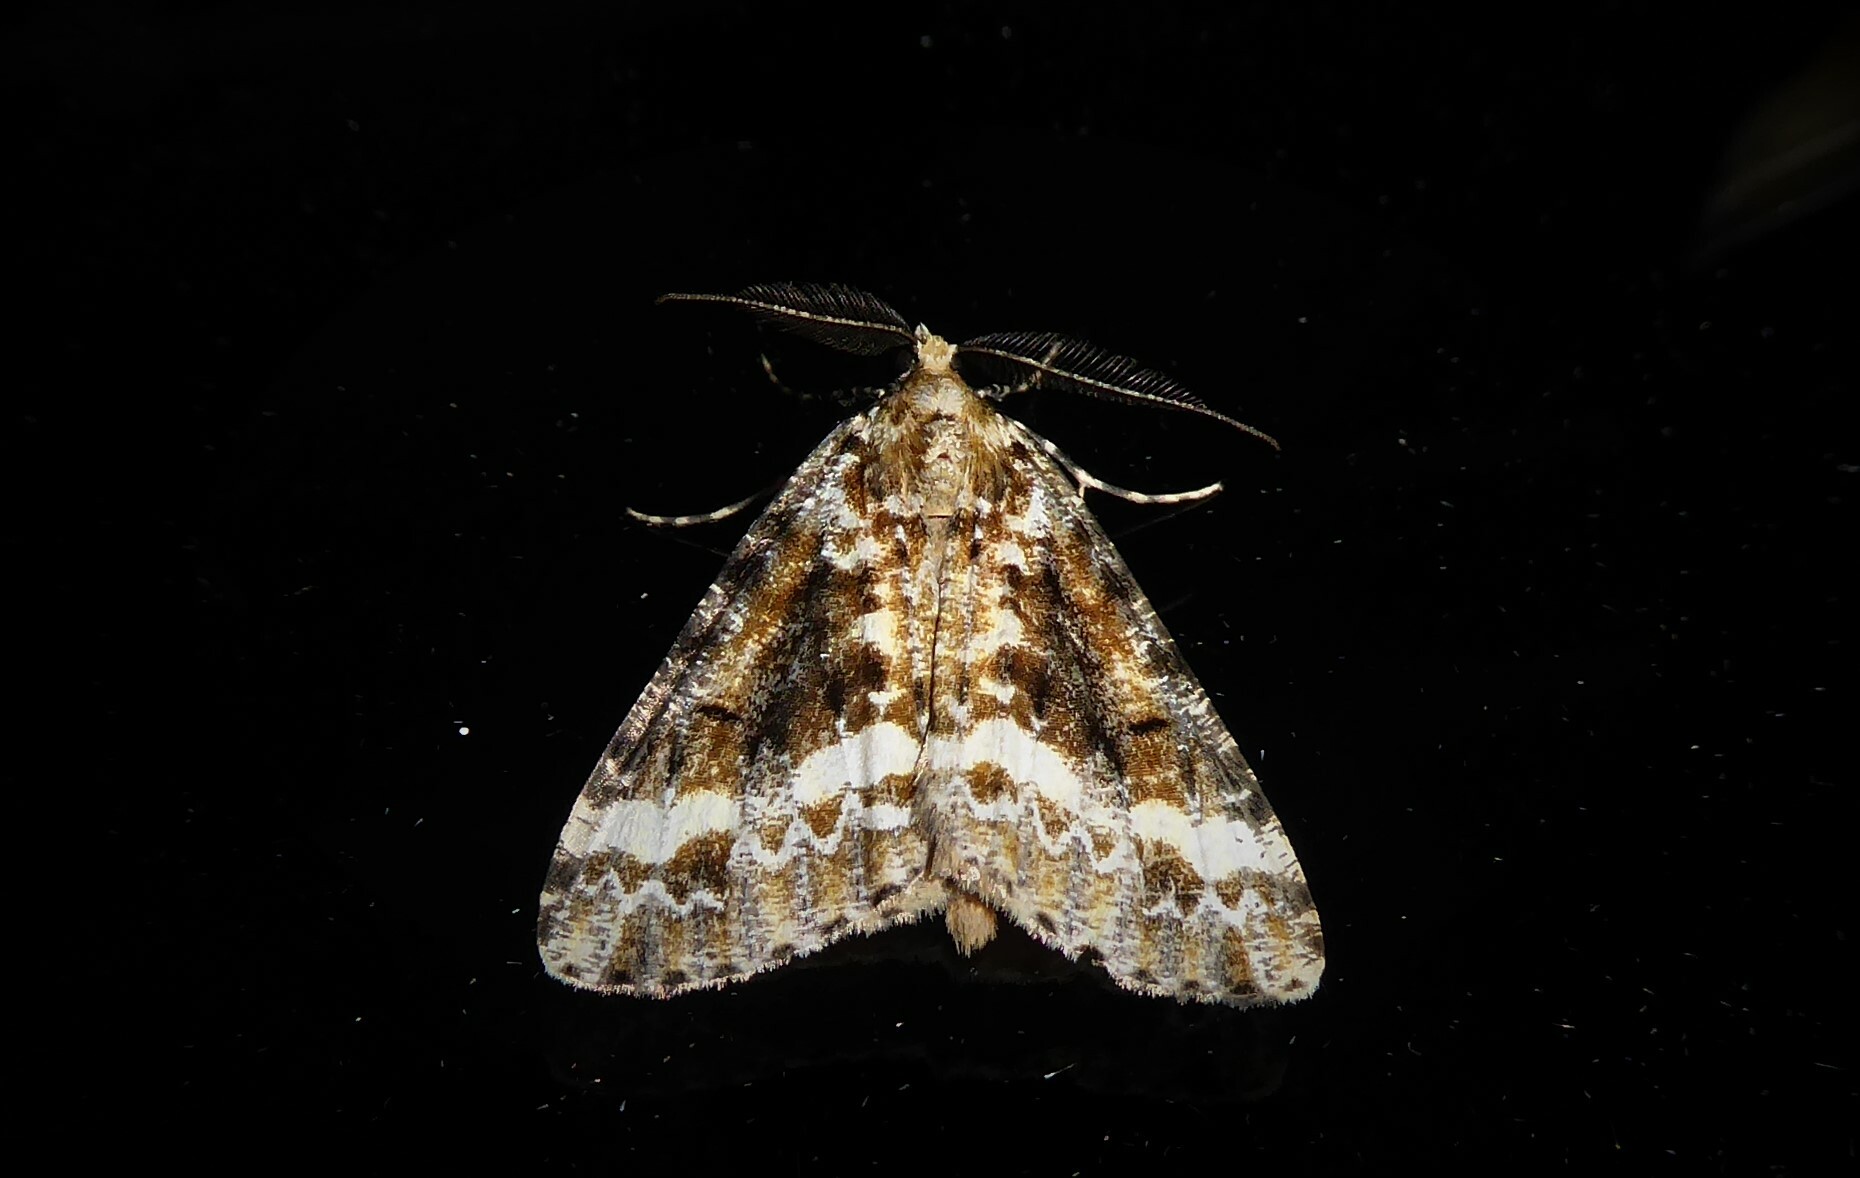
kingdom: Animalia
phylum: Arthropoda
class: Insecta
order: Lepidoptera
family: Geometridae
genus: Pseudocoremia
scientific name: Pseudocoremia leucelaea
